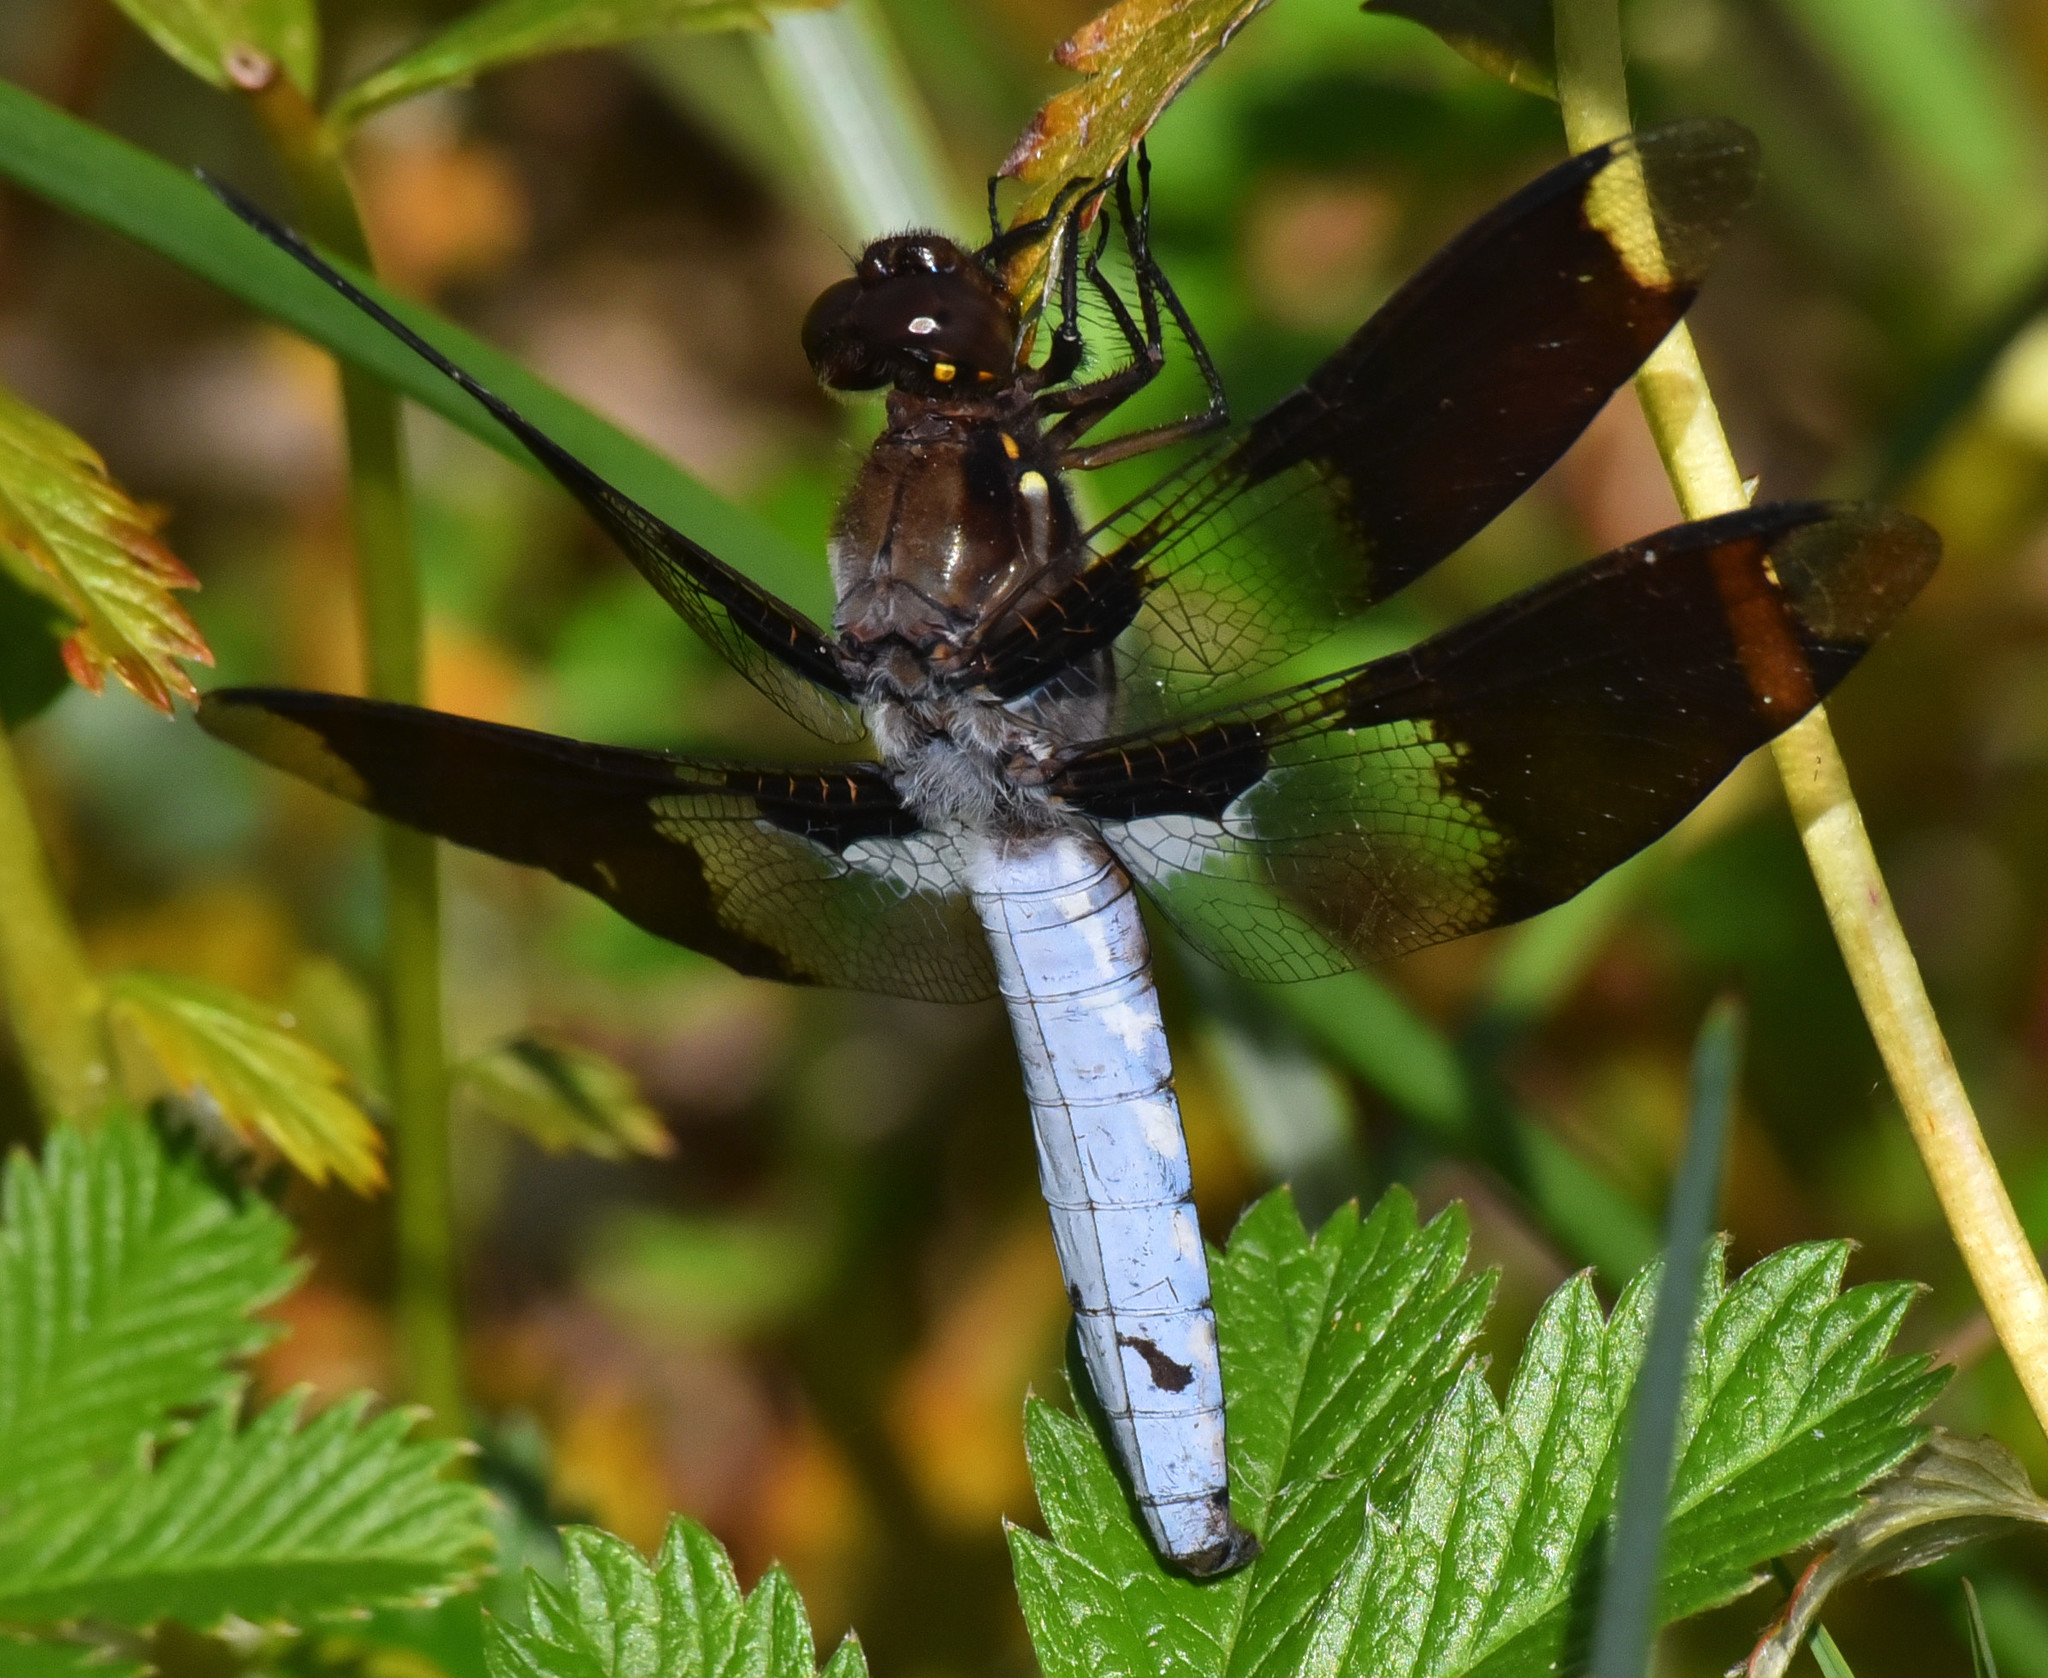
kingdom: Animalia
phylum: Arthropoda
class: Insecta
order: Odonata
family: Libellulidae
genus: Plathemis
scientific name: Plathemis lydia
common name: Common whitetail
